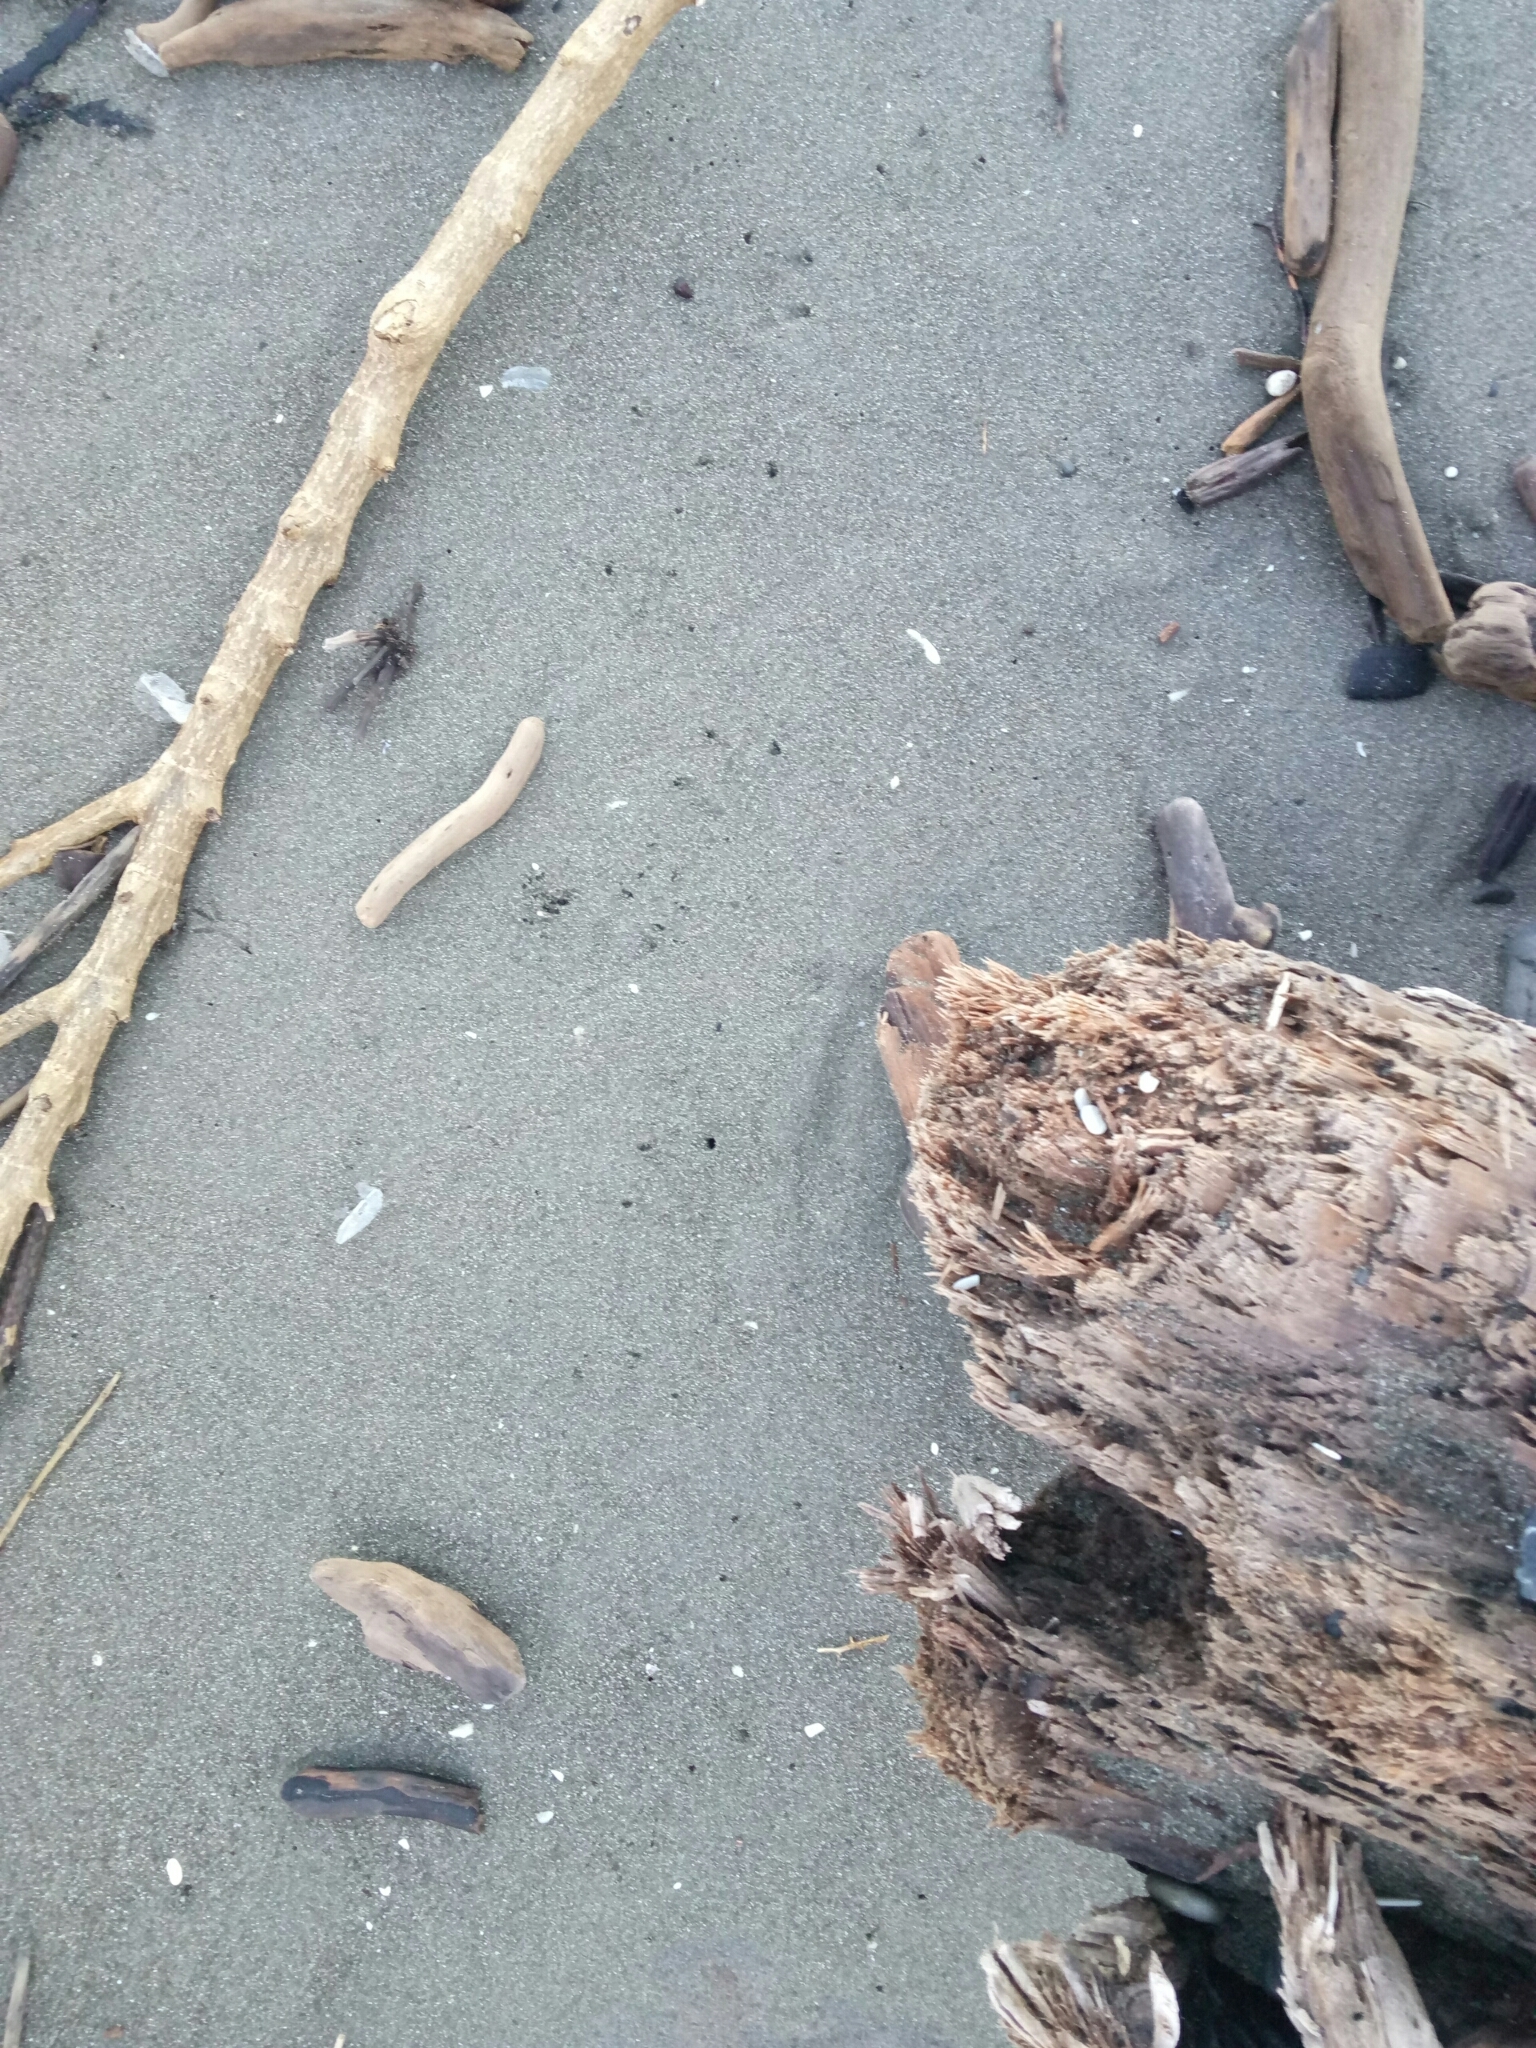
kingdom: Animalia
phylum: Chordata
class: Aves
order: Sphenisciformes
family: Spheniscidae
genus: Eudyptula
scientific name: Eudyptula minor
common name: Little penguin
